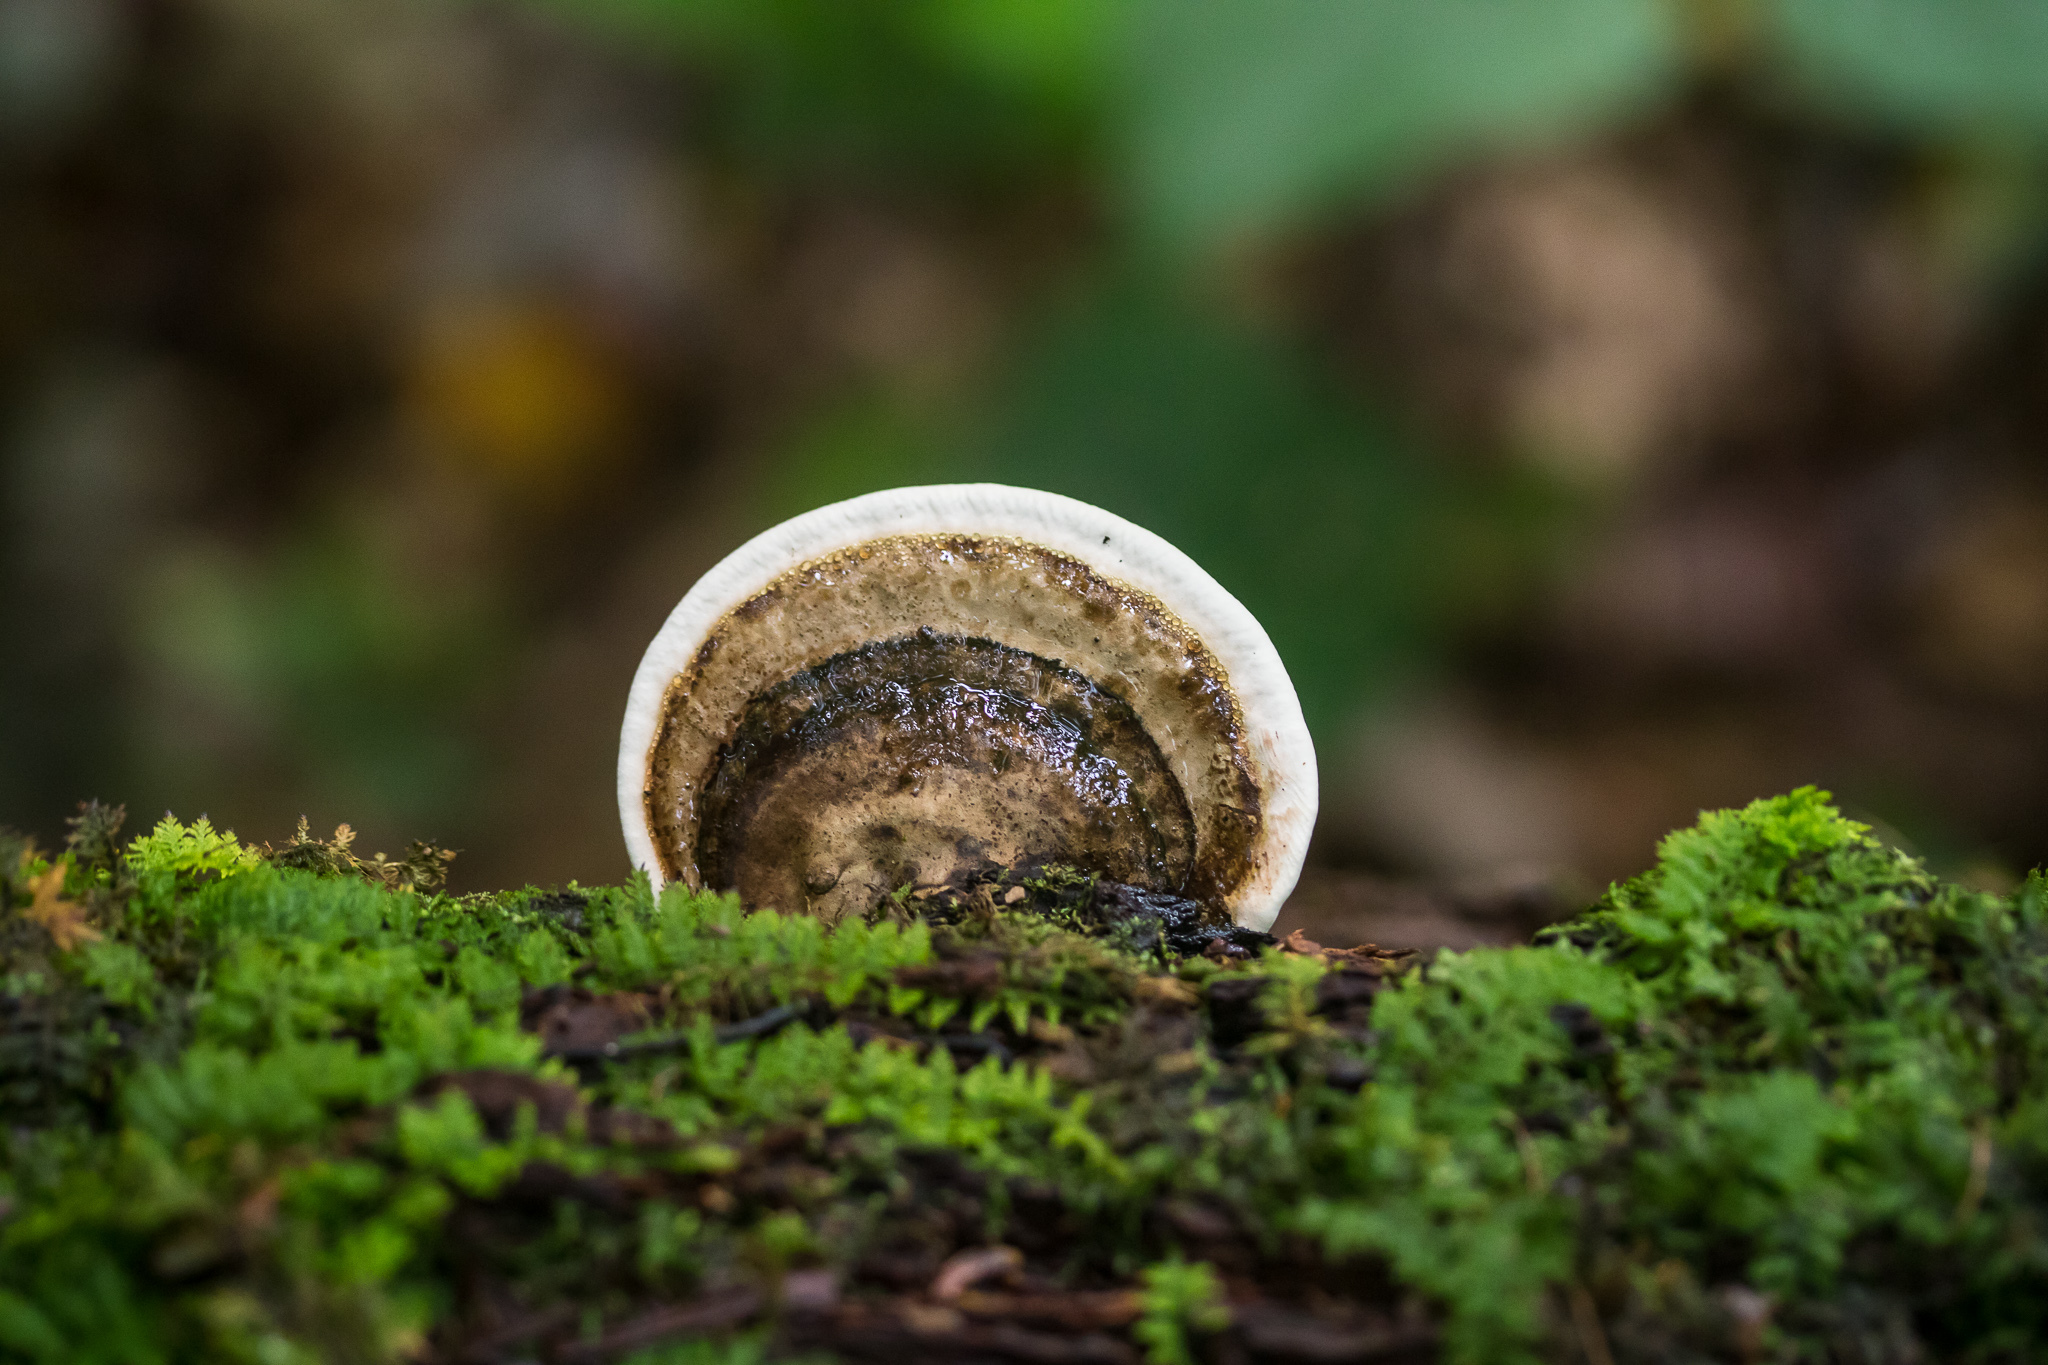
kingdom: Fungi
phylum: Basidiomycota
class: Agaricomycetes
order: Polyporales
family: Polyporaceae
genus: Ganoderma
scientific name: Ganoderma applanatum
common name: Artist's bracket
